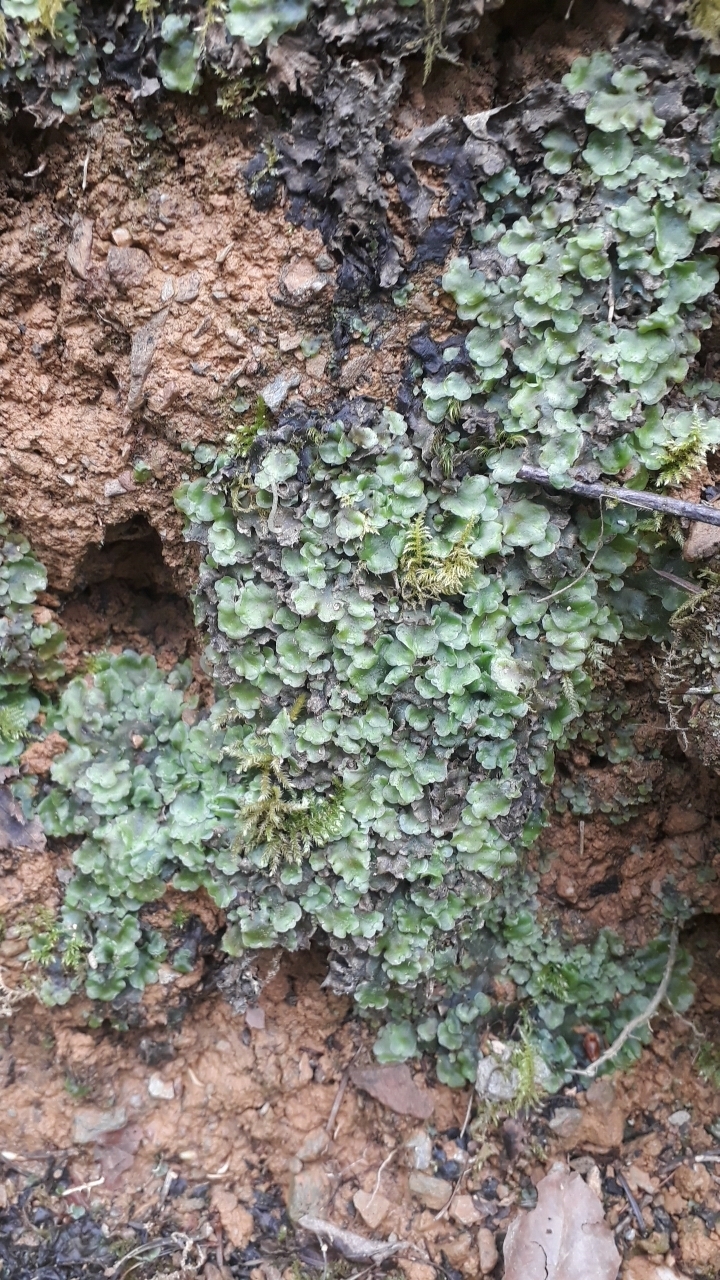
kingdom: Plantae
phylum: Marchantiophyta
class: Jungermanniopsida
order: Pelliales
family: Pelliaceae
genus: Pellia
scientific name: Pellia epiphylla
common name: Common pellia
